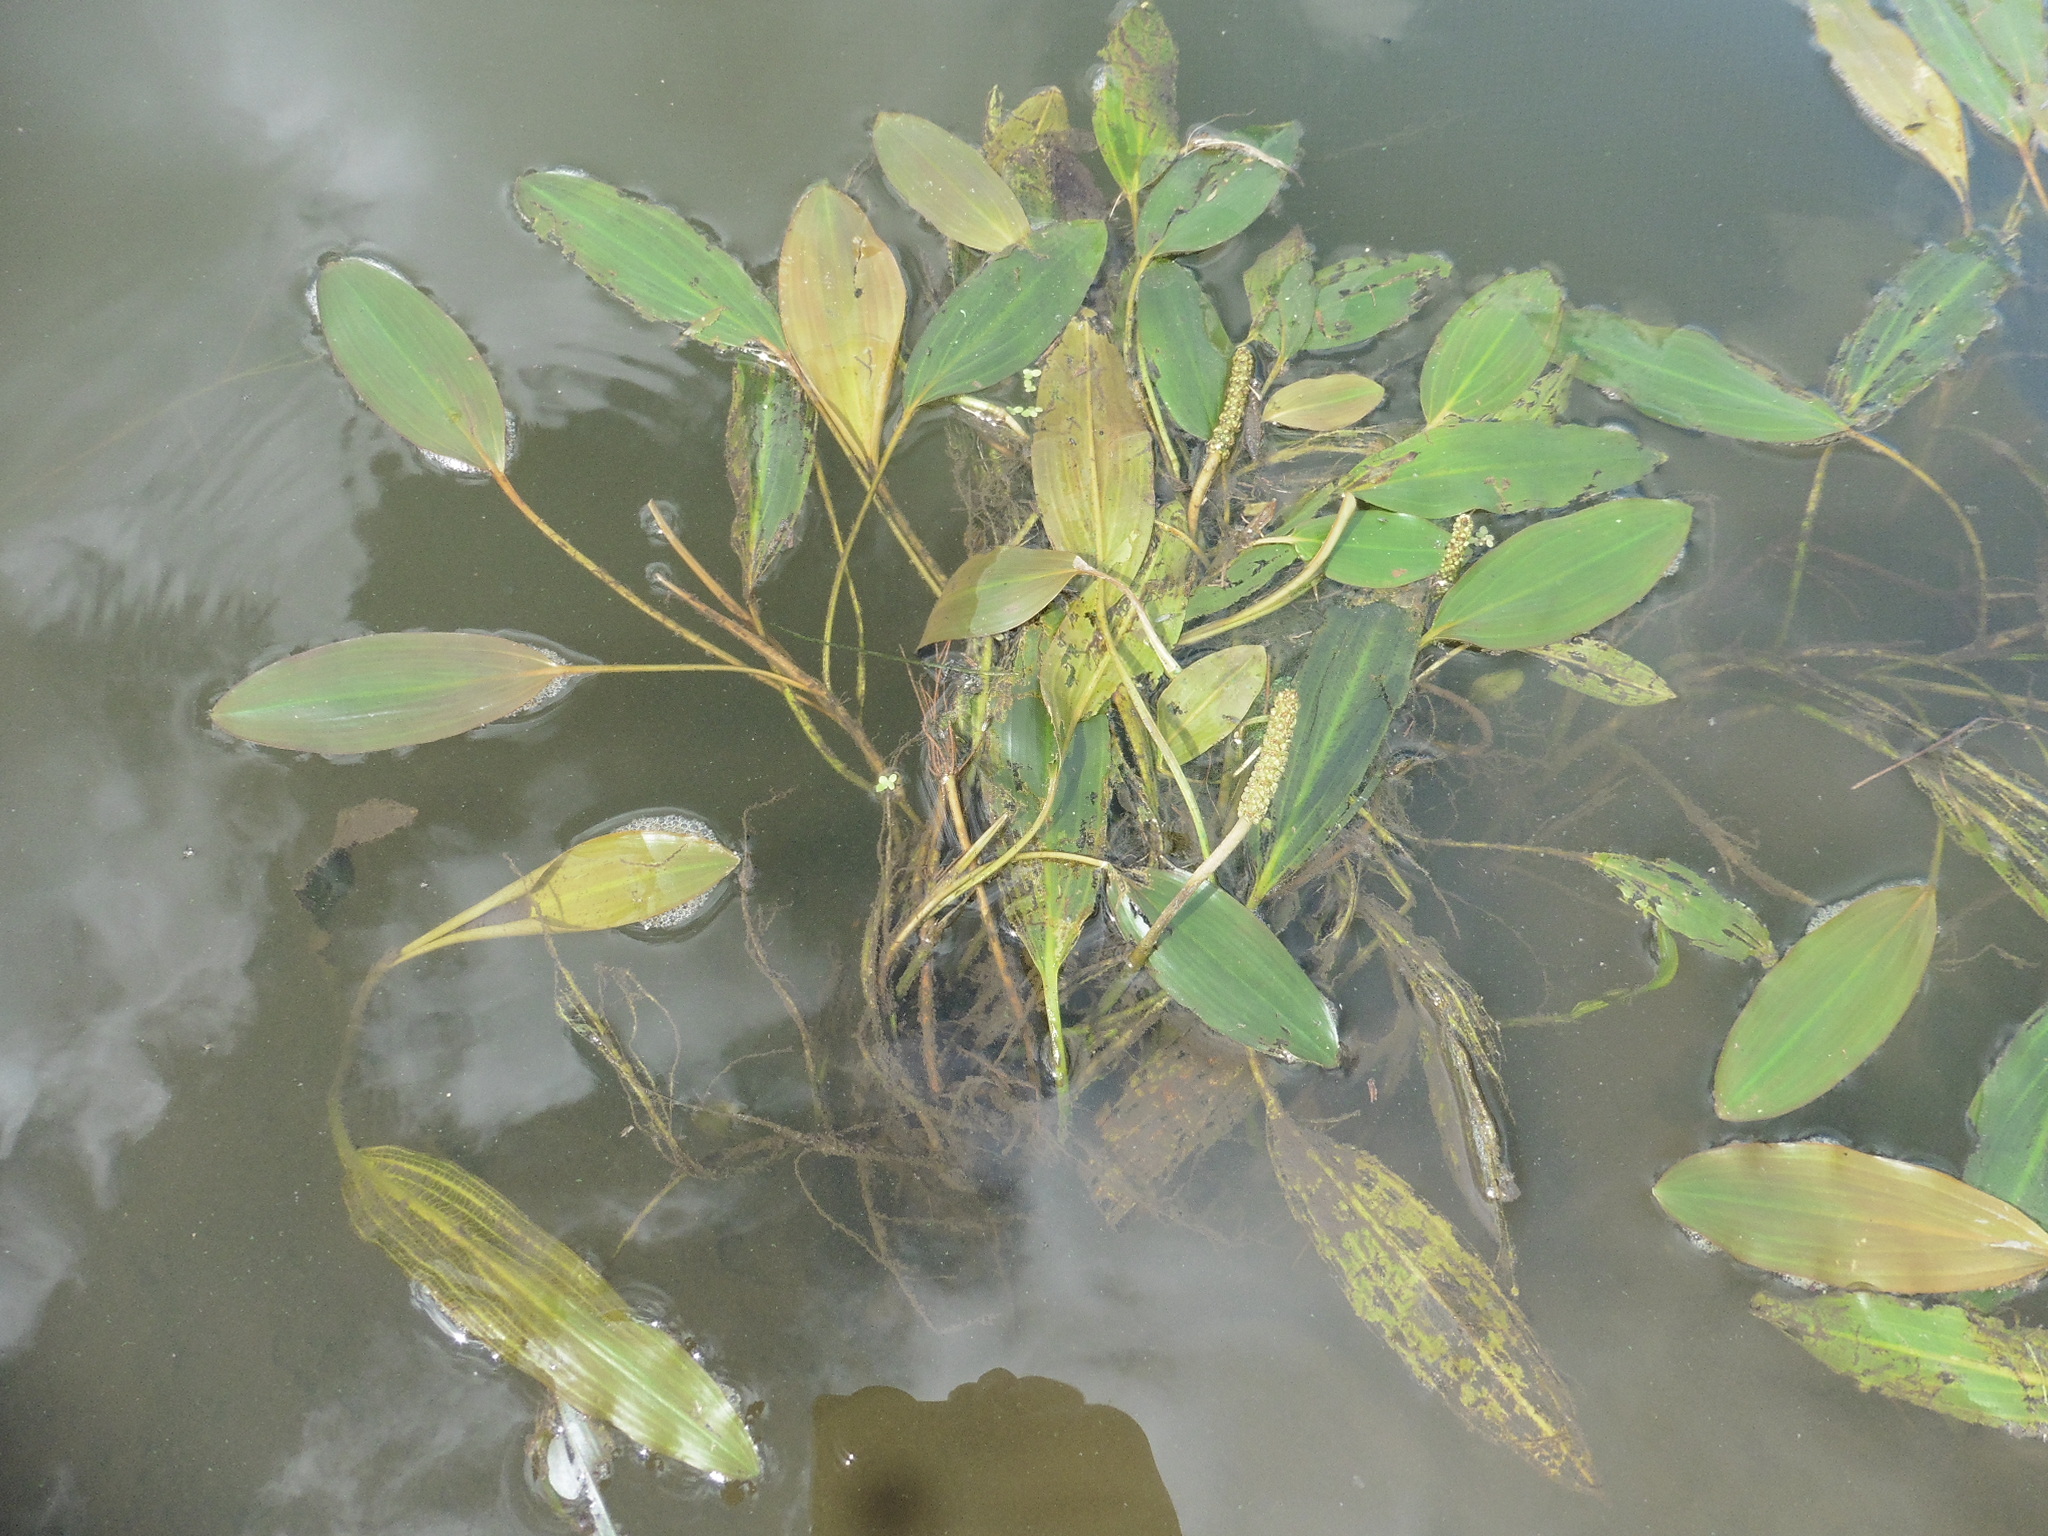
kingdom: Plantae
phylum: Tracheophyta
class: Liliopsida
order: Alismatales
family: Potamogetonaceae
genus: Potamogeton
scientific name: Potamogeton nodosus
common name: Loddon pondweed
